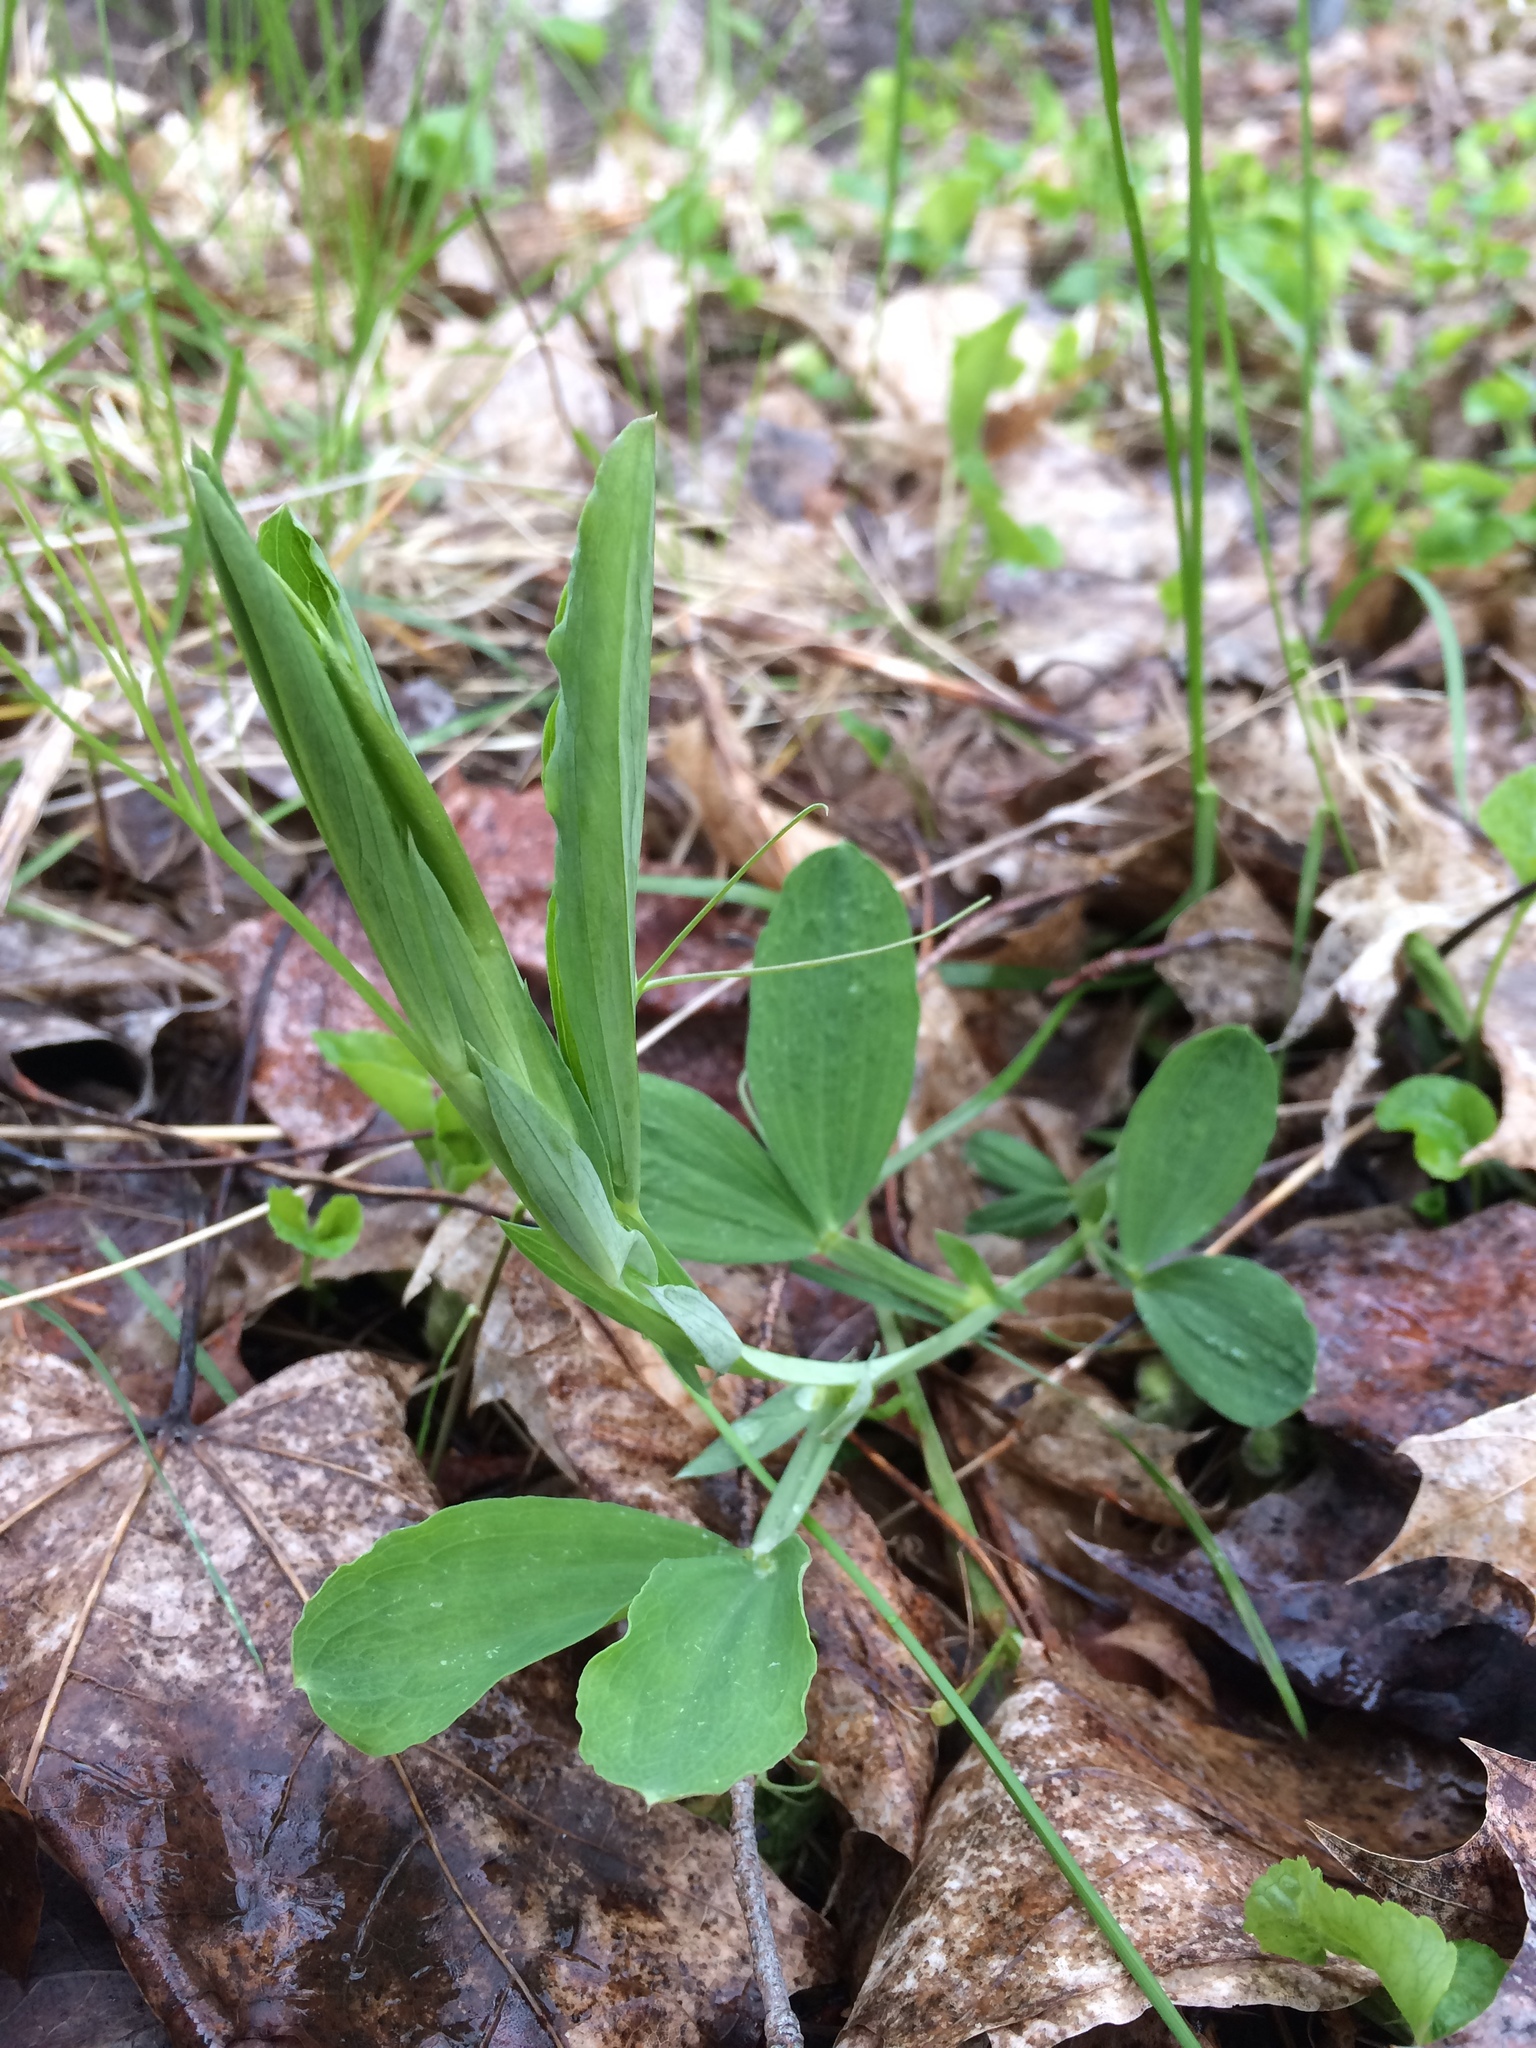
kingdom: Plantae
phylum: Tracheophyta
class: Magnoliopsida
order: Fabales
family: Fabaceae
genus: Lathyrus
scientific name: Lathyrus latifolius
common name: Perennial pea
